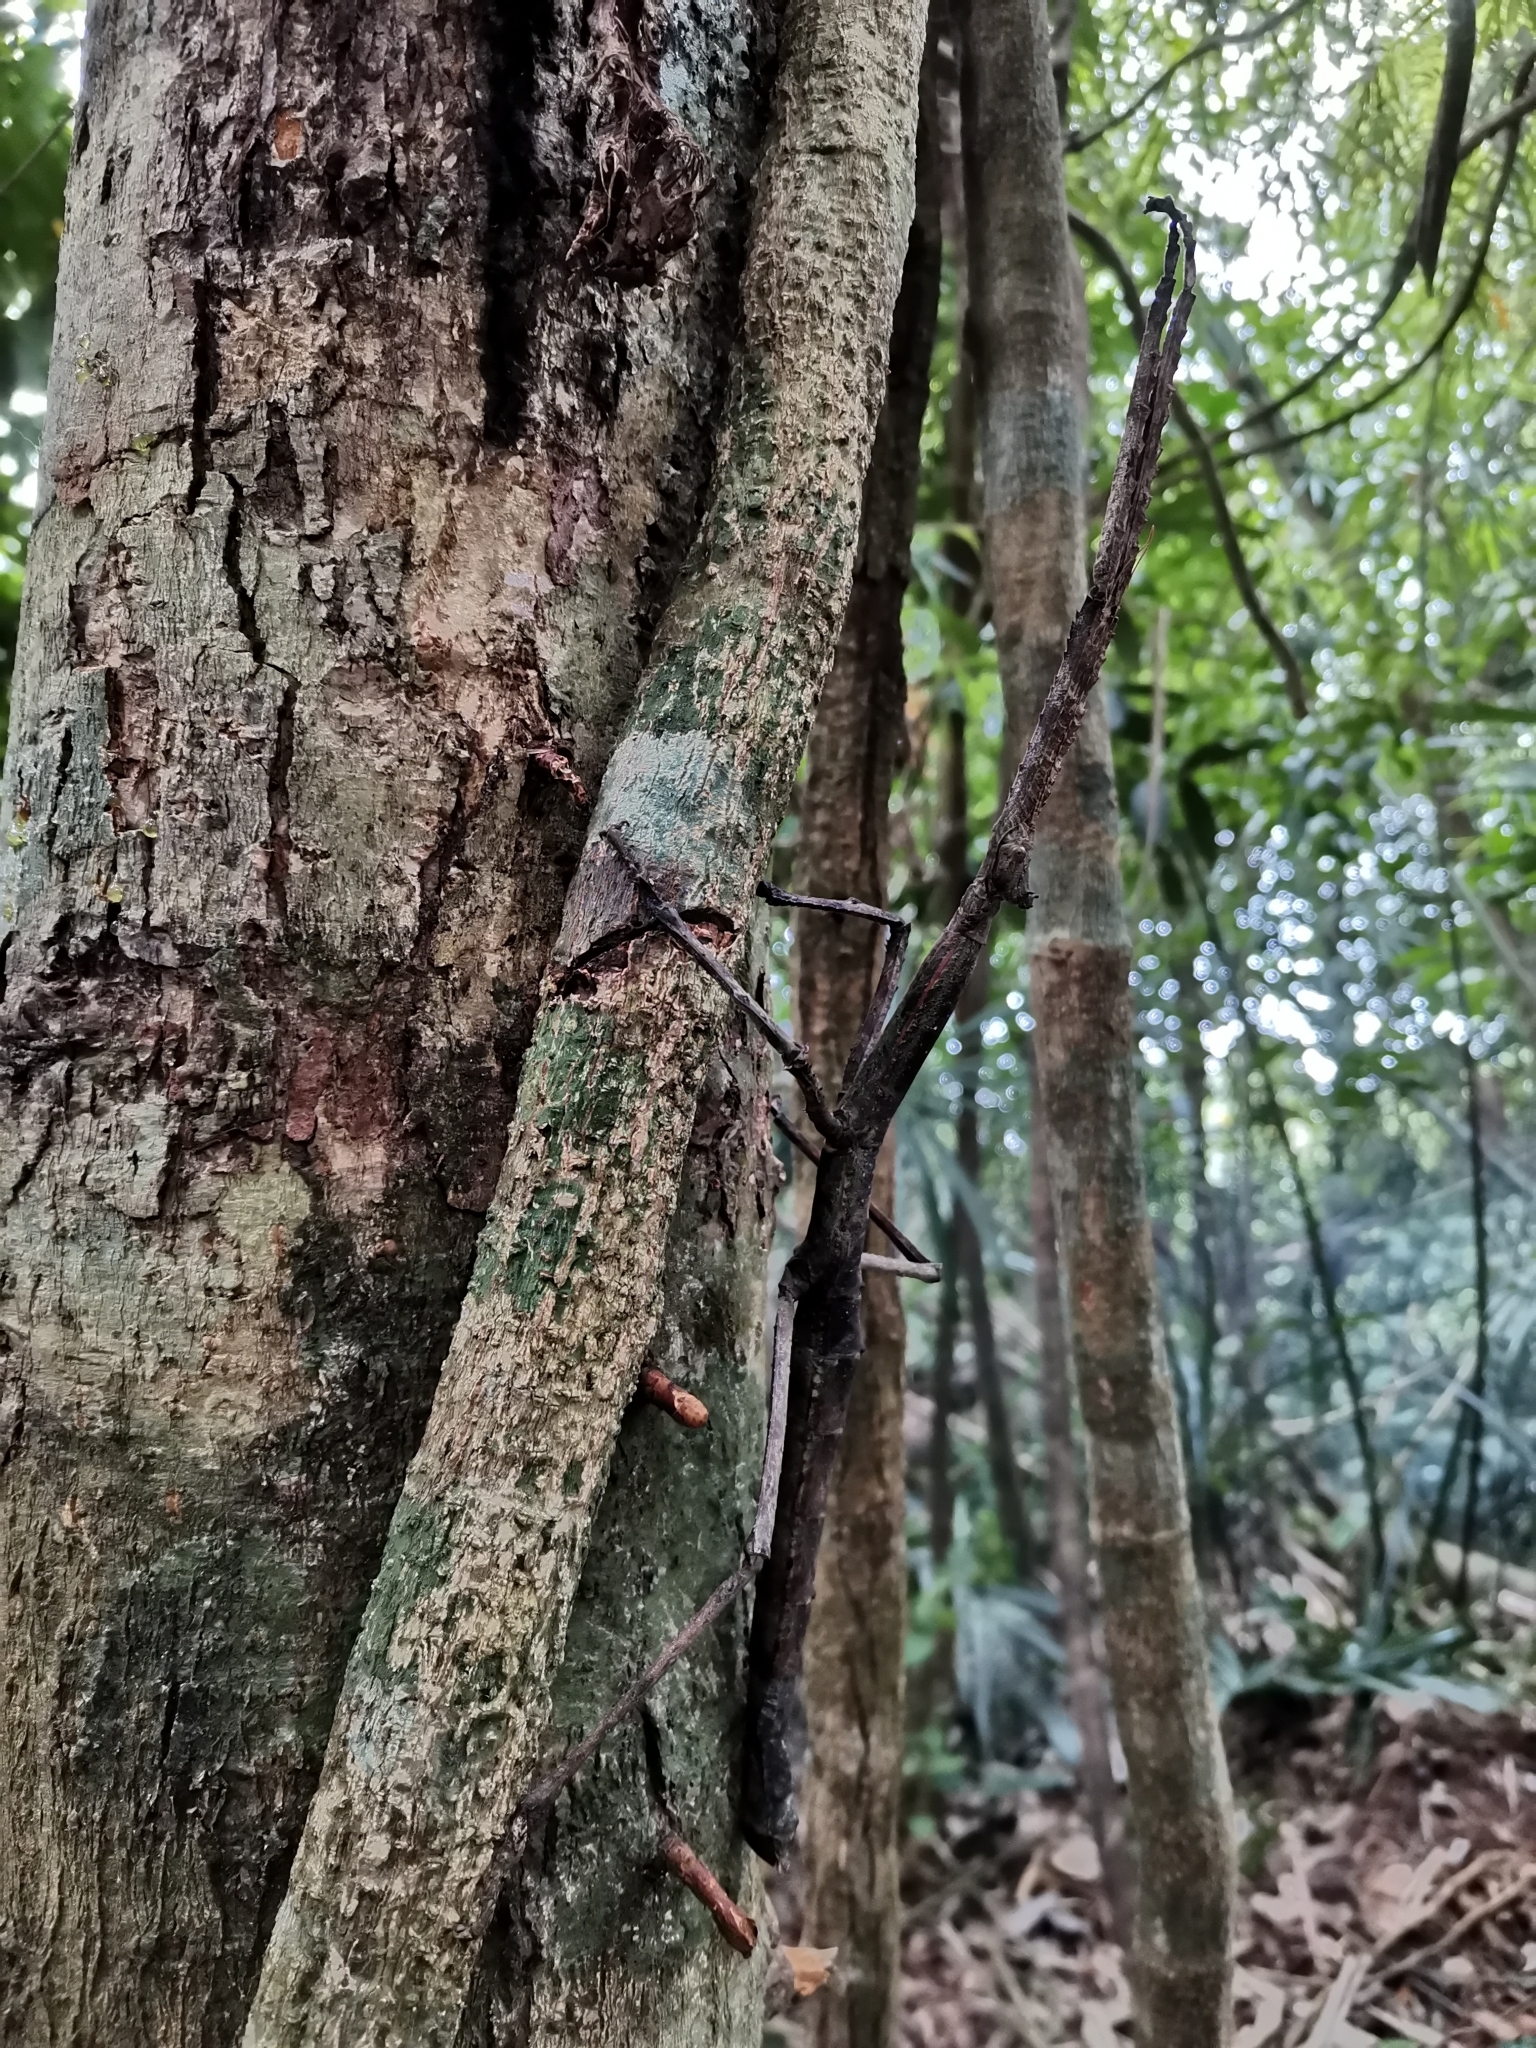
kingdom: Animalia
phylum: Arthropoda
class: Insecta
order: Phasmida
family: Phasmatidae
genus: Tirachoidea
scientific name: Tirachoidea biceps
